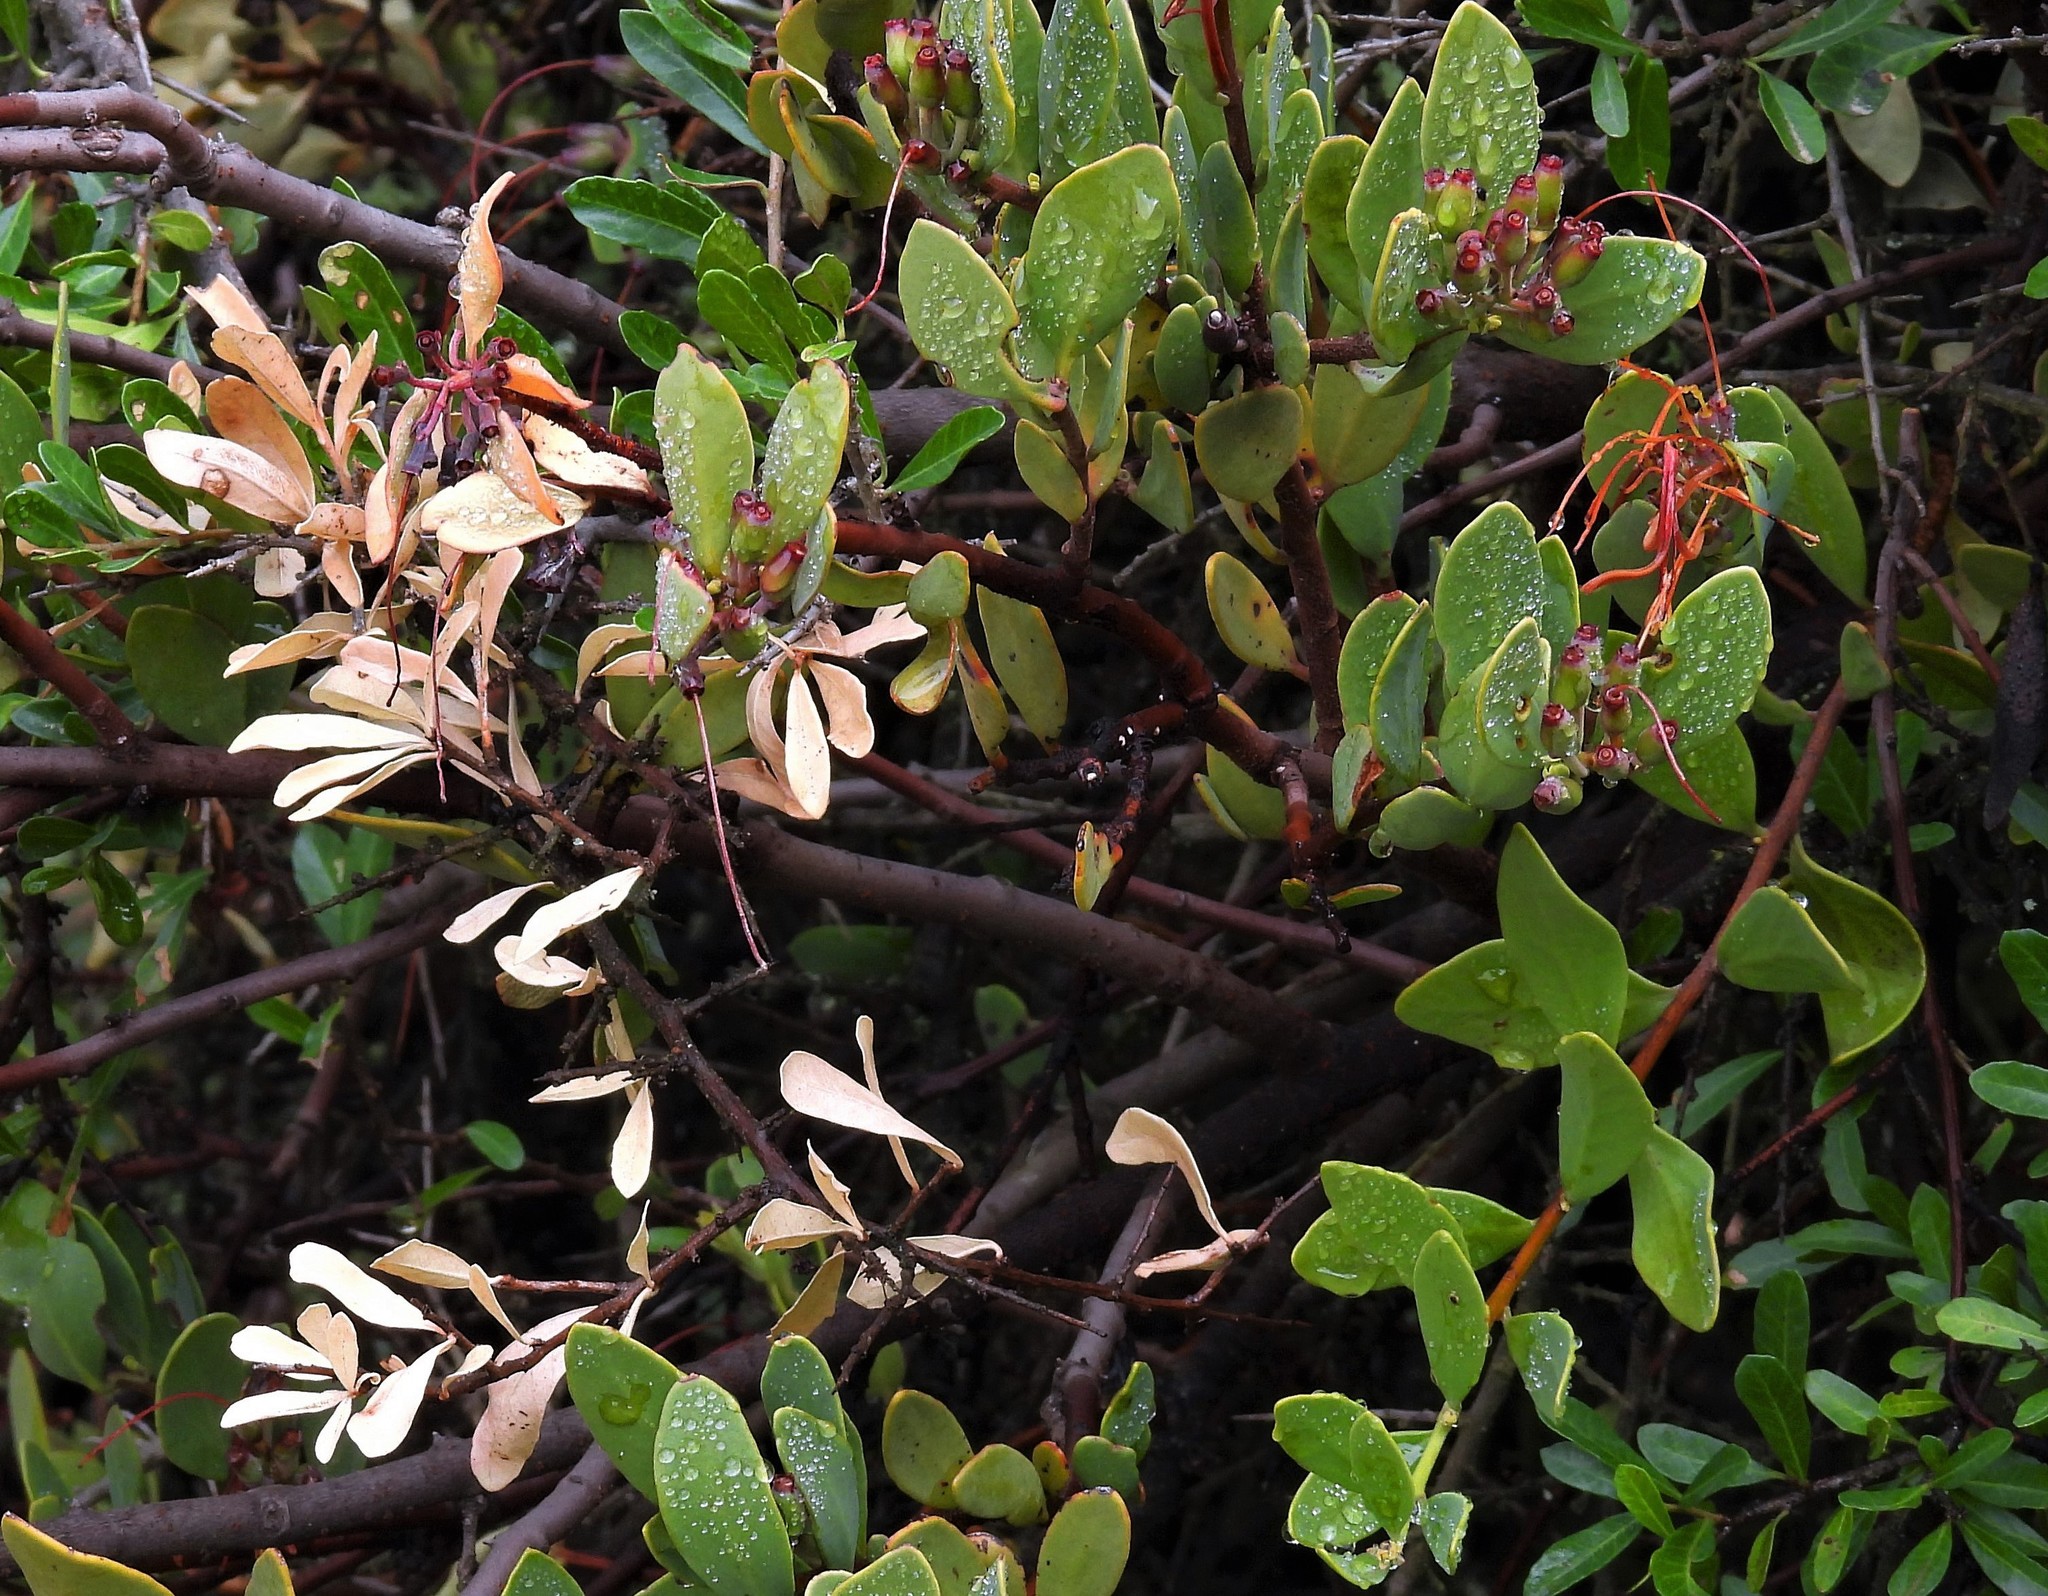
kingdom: Plantae
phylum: Tracheophyta
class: Magnoliopsida
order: Santalales
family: Loranthaceae
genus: Tristerix
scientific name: Tristerix verticillatus
